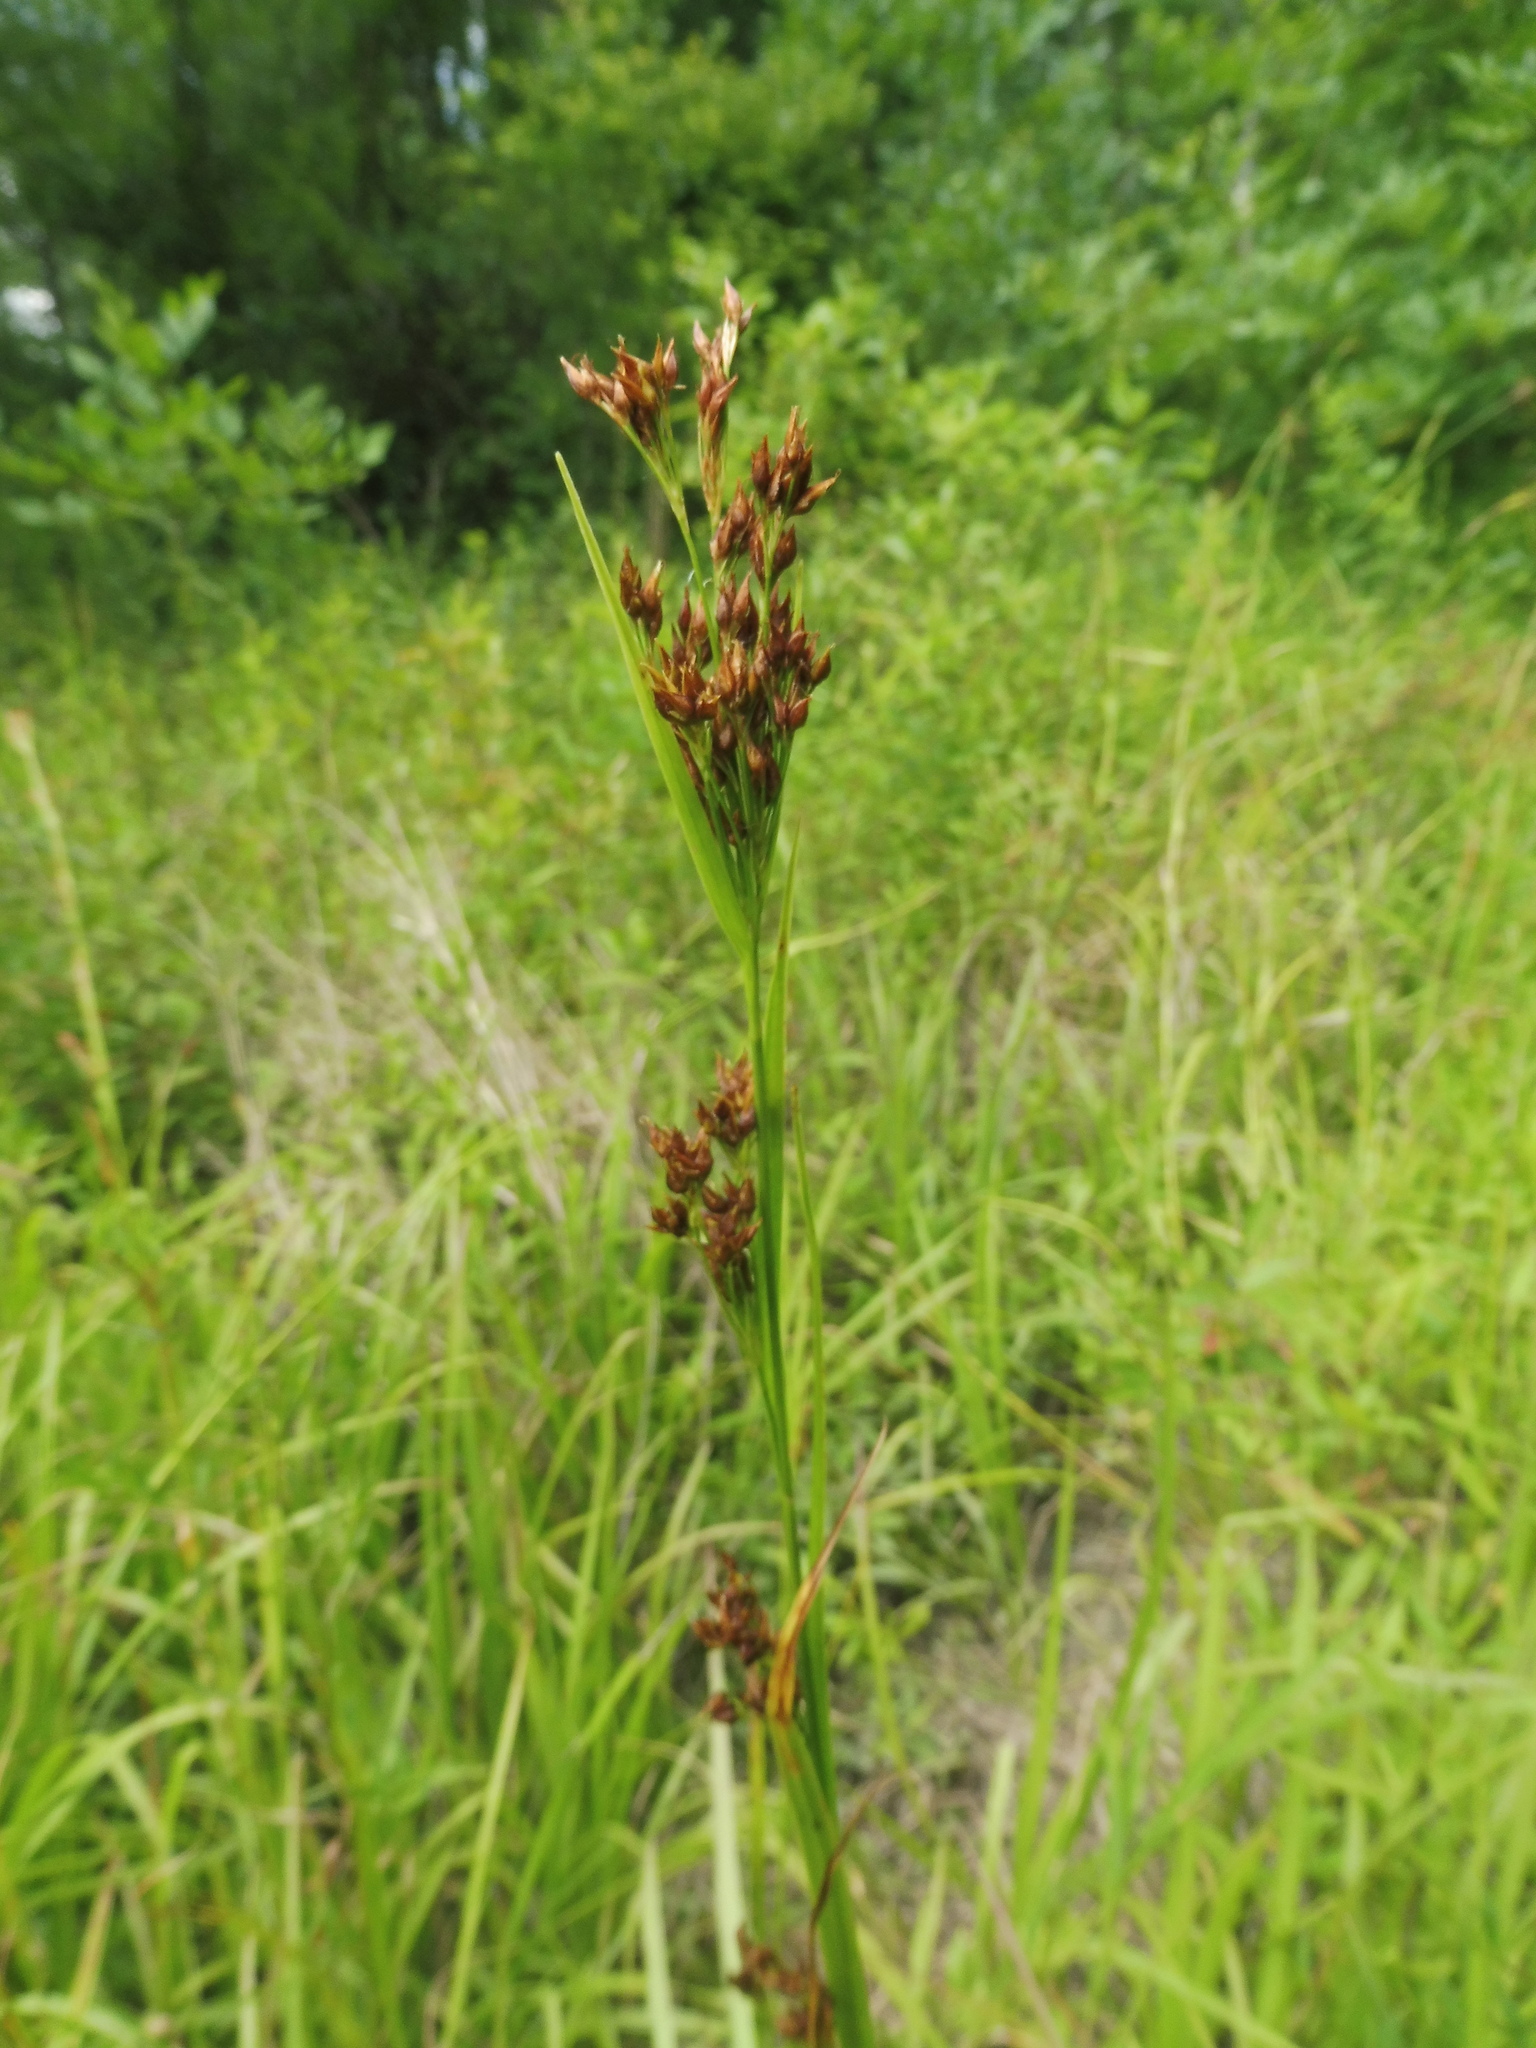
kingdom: Plantae
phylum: Tracheophyta
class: Liliopsida
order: Poales
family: Cyperaceae
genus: Rhynchospora
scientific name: Rhynchospora caduca
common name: Anglestem beaksedge
